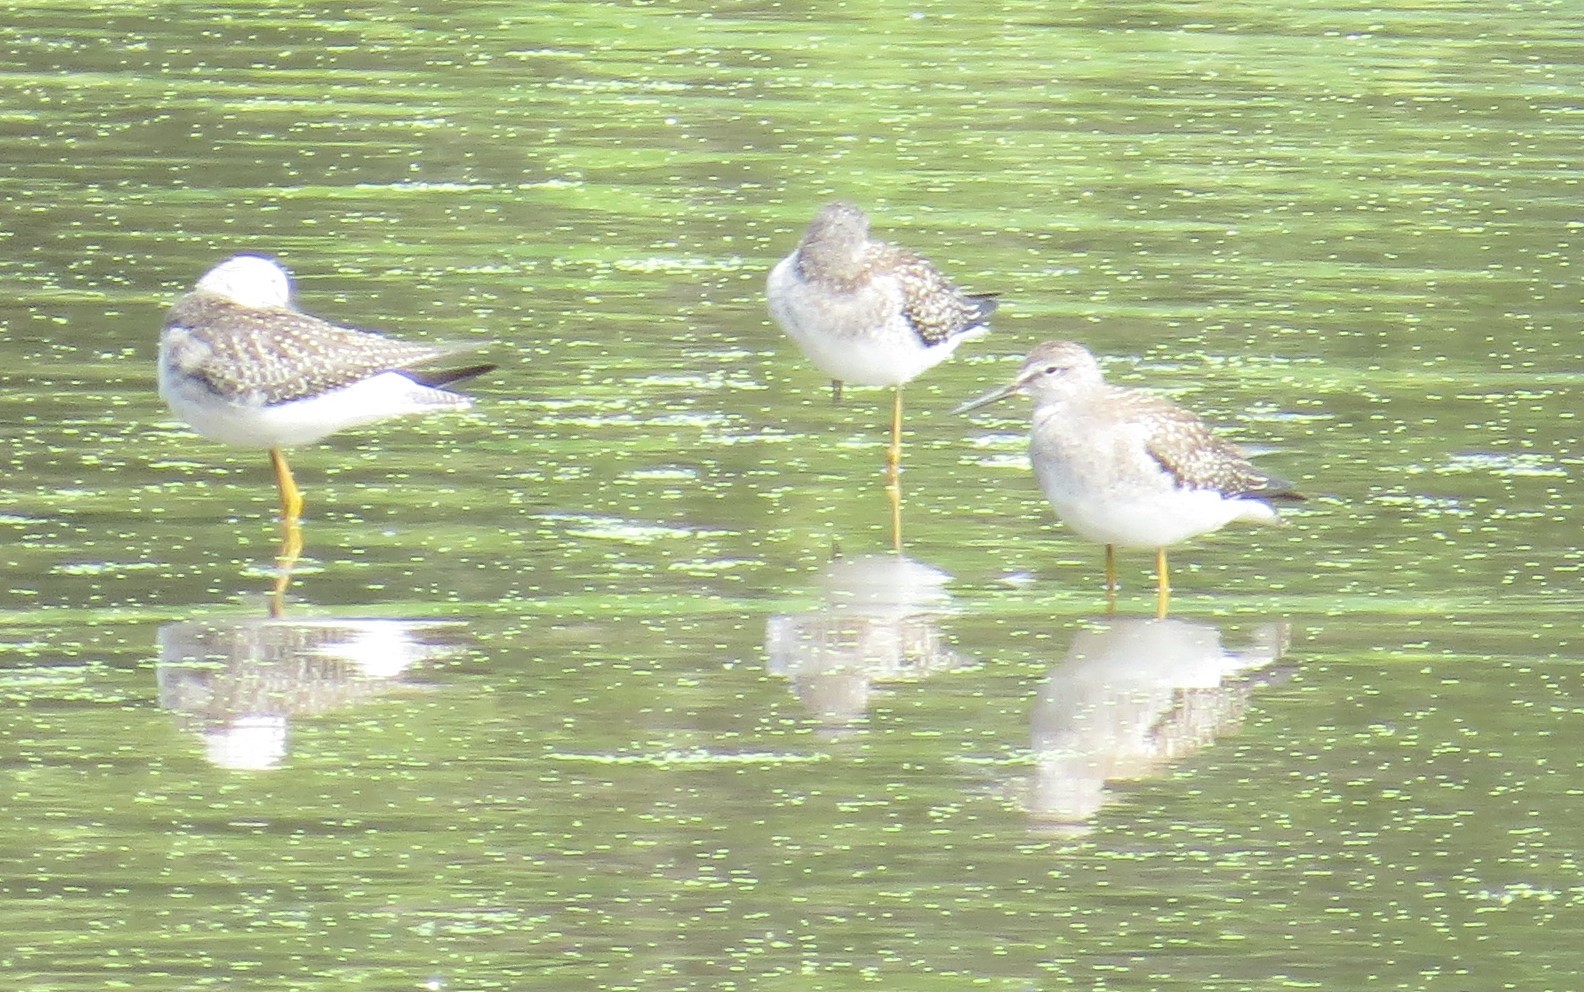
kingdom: Animalia
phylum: Chordata
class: Aves
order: Charadriiformes
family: Scolopacidae
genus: Tringa
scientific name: Tringa flavipes
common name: Lesser yellowlegs
